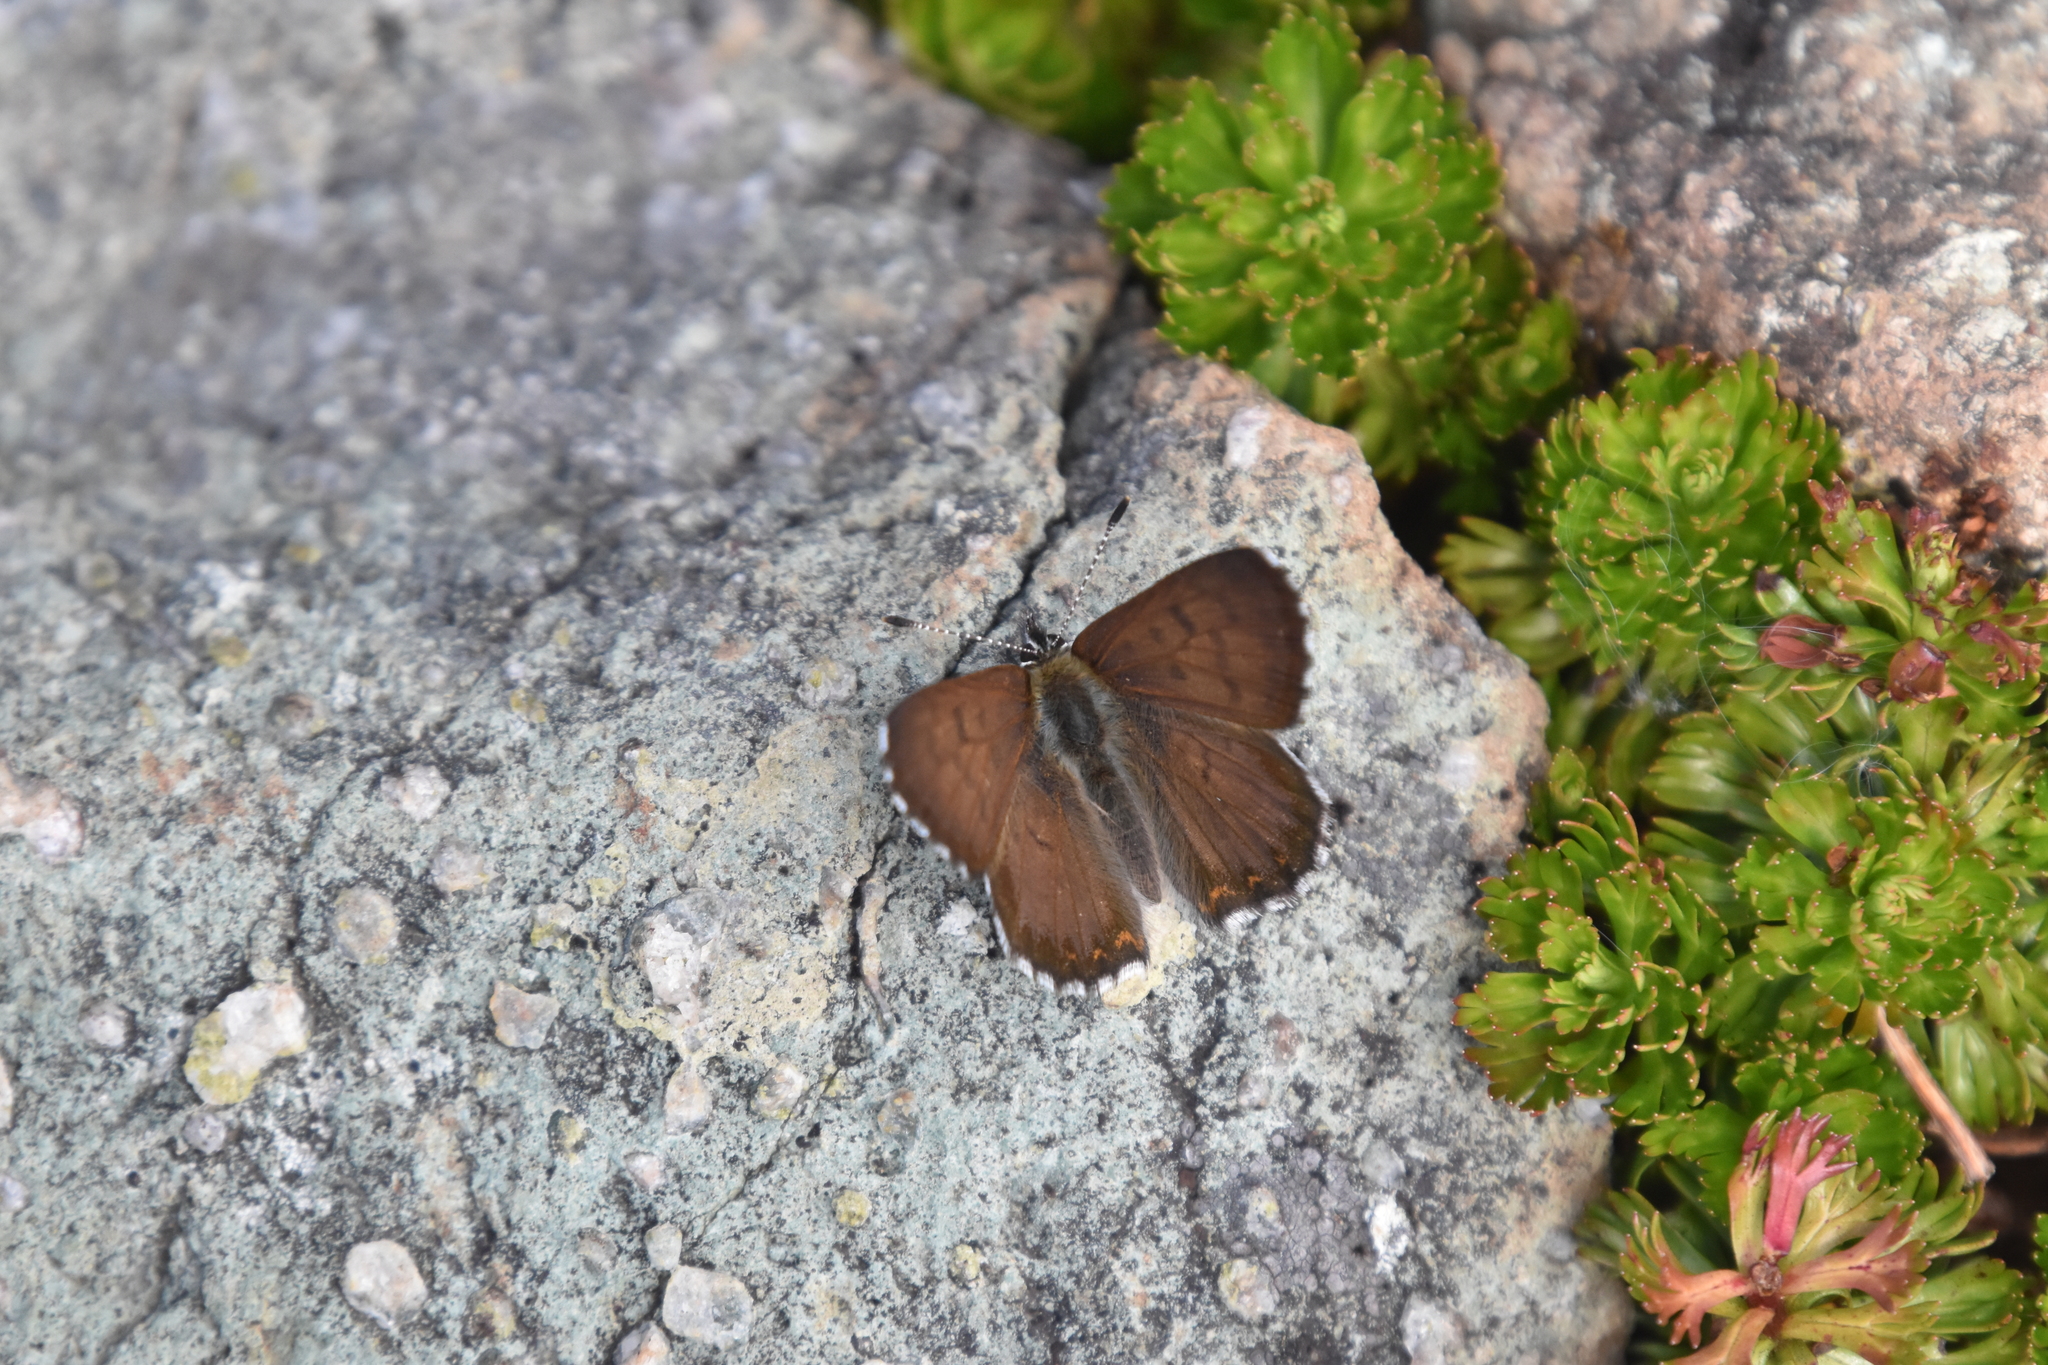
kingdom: Animalia
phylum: Arthropoda
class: Insecta
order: Lepidoptera
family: Lycaenidae
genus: Tharsalea
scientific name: Tharsalea mariposa
